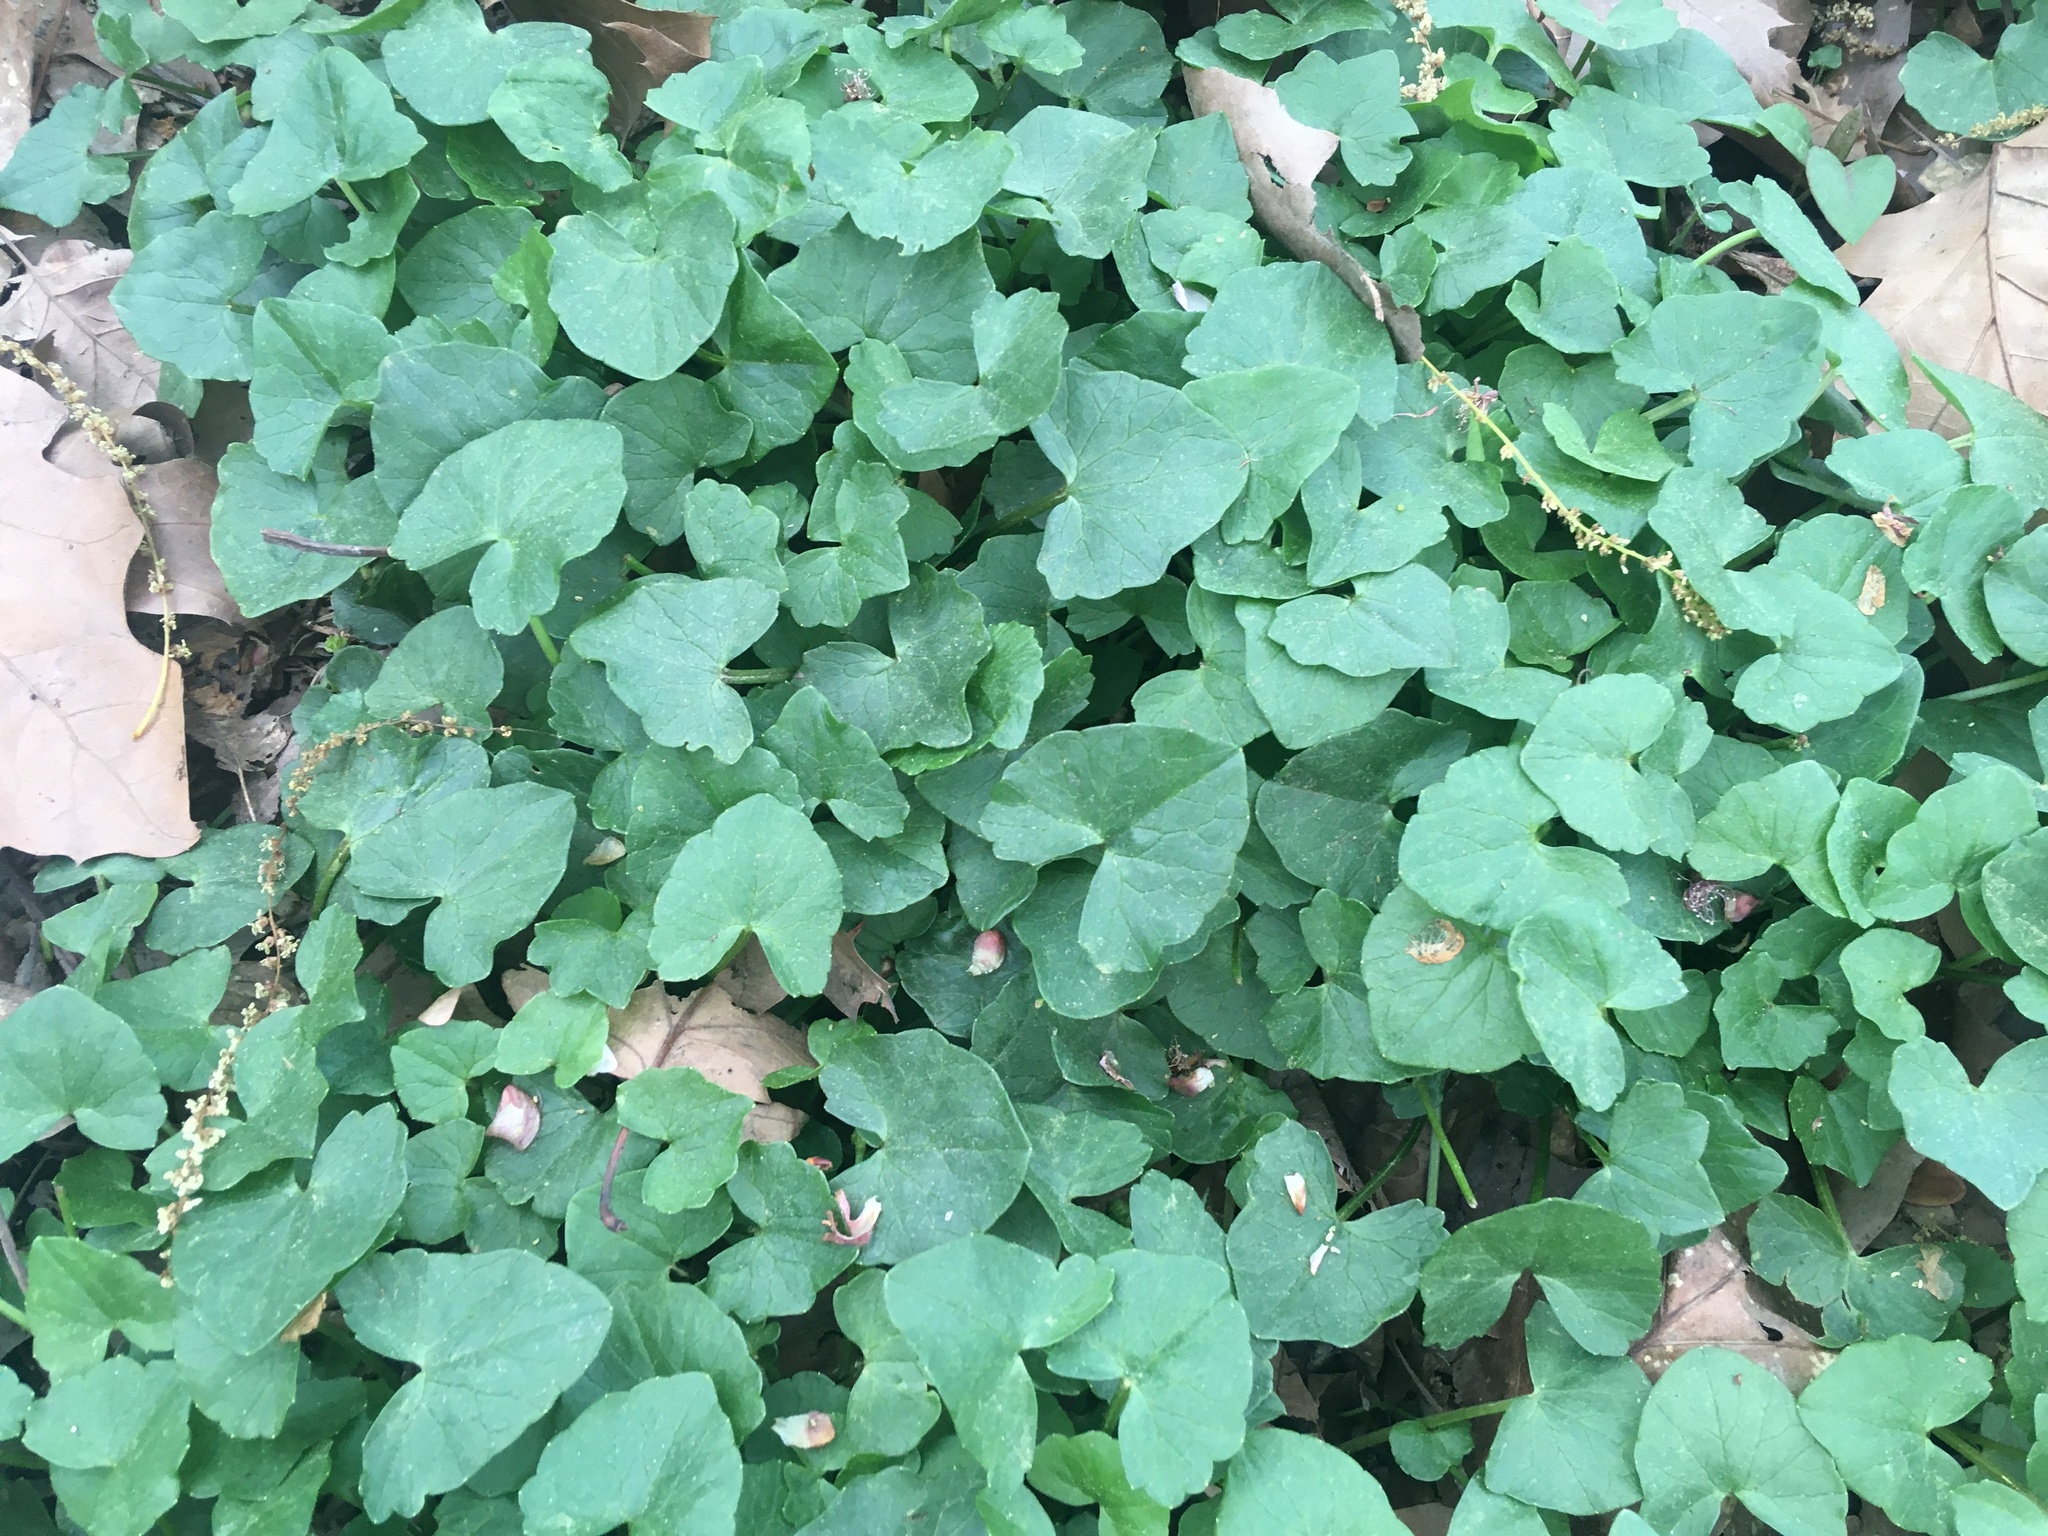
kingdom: Plantae
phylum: Tracheophyta
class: Magnoliopsida
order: Ranunculales
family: Ranunculaceae
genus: Ficaria
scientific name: Ficaria verna
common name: Lesser celandine
